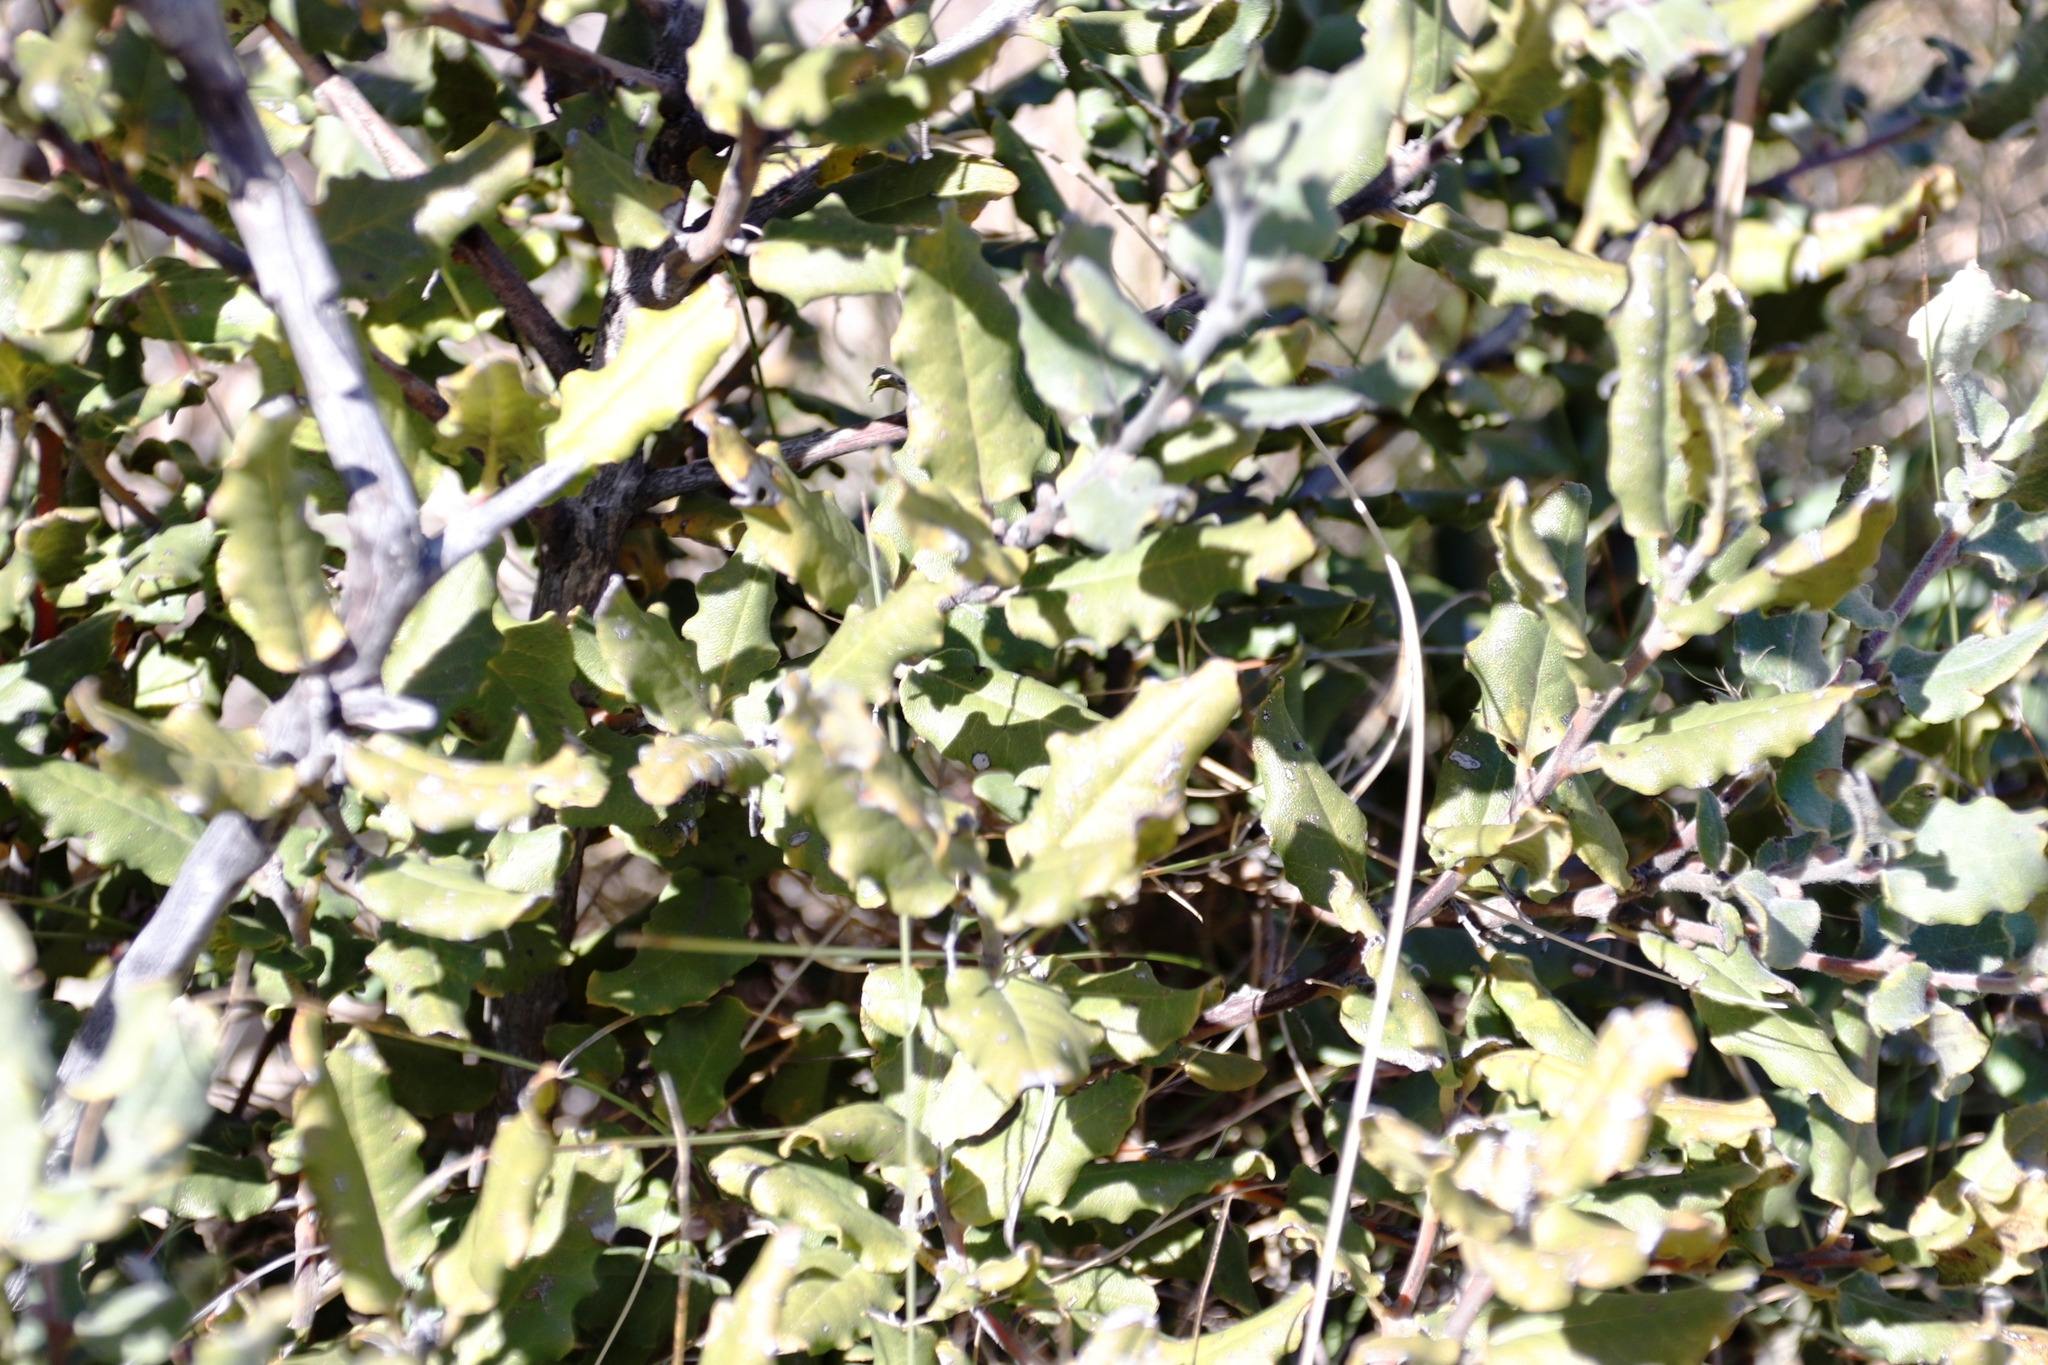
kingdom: Plantae
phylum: Tracheophyta
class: Magnoliopsida
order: Ericales
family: Ebenaceae
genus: Euclea
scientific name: Euclea undulata
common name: Small-leaved guarri
